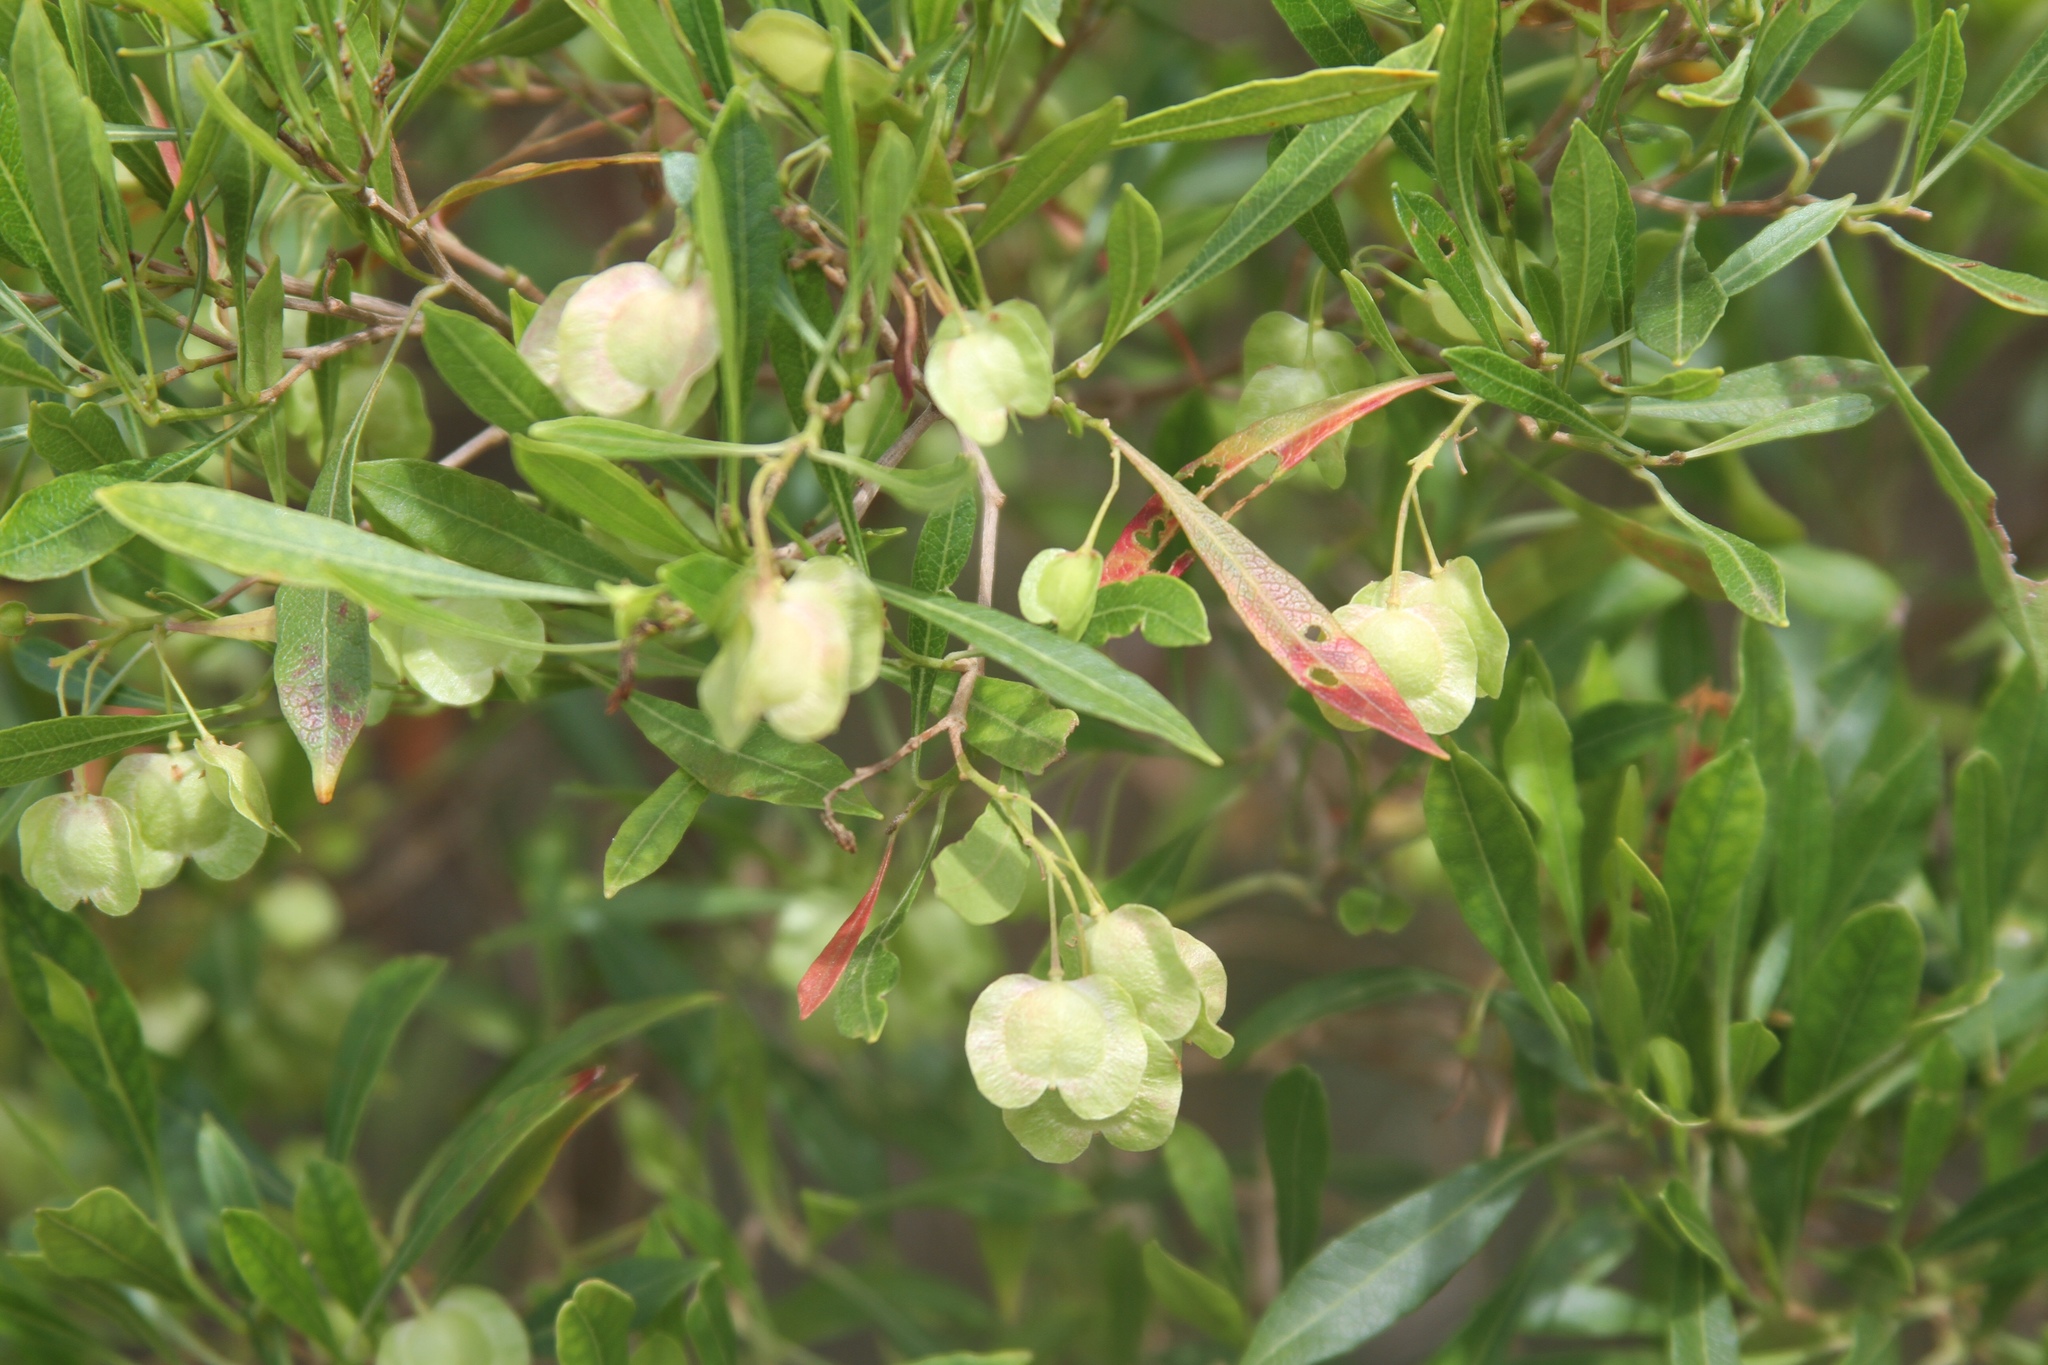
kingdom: Plantae
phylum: Tracheophyta
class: Magnoliopsida
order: Sapindales
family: Sapindaceae
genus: Dodonaea
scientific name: Dodonaea viscosa
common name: Hopbush
